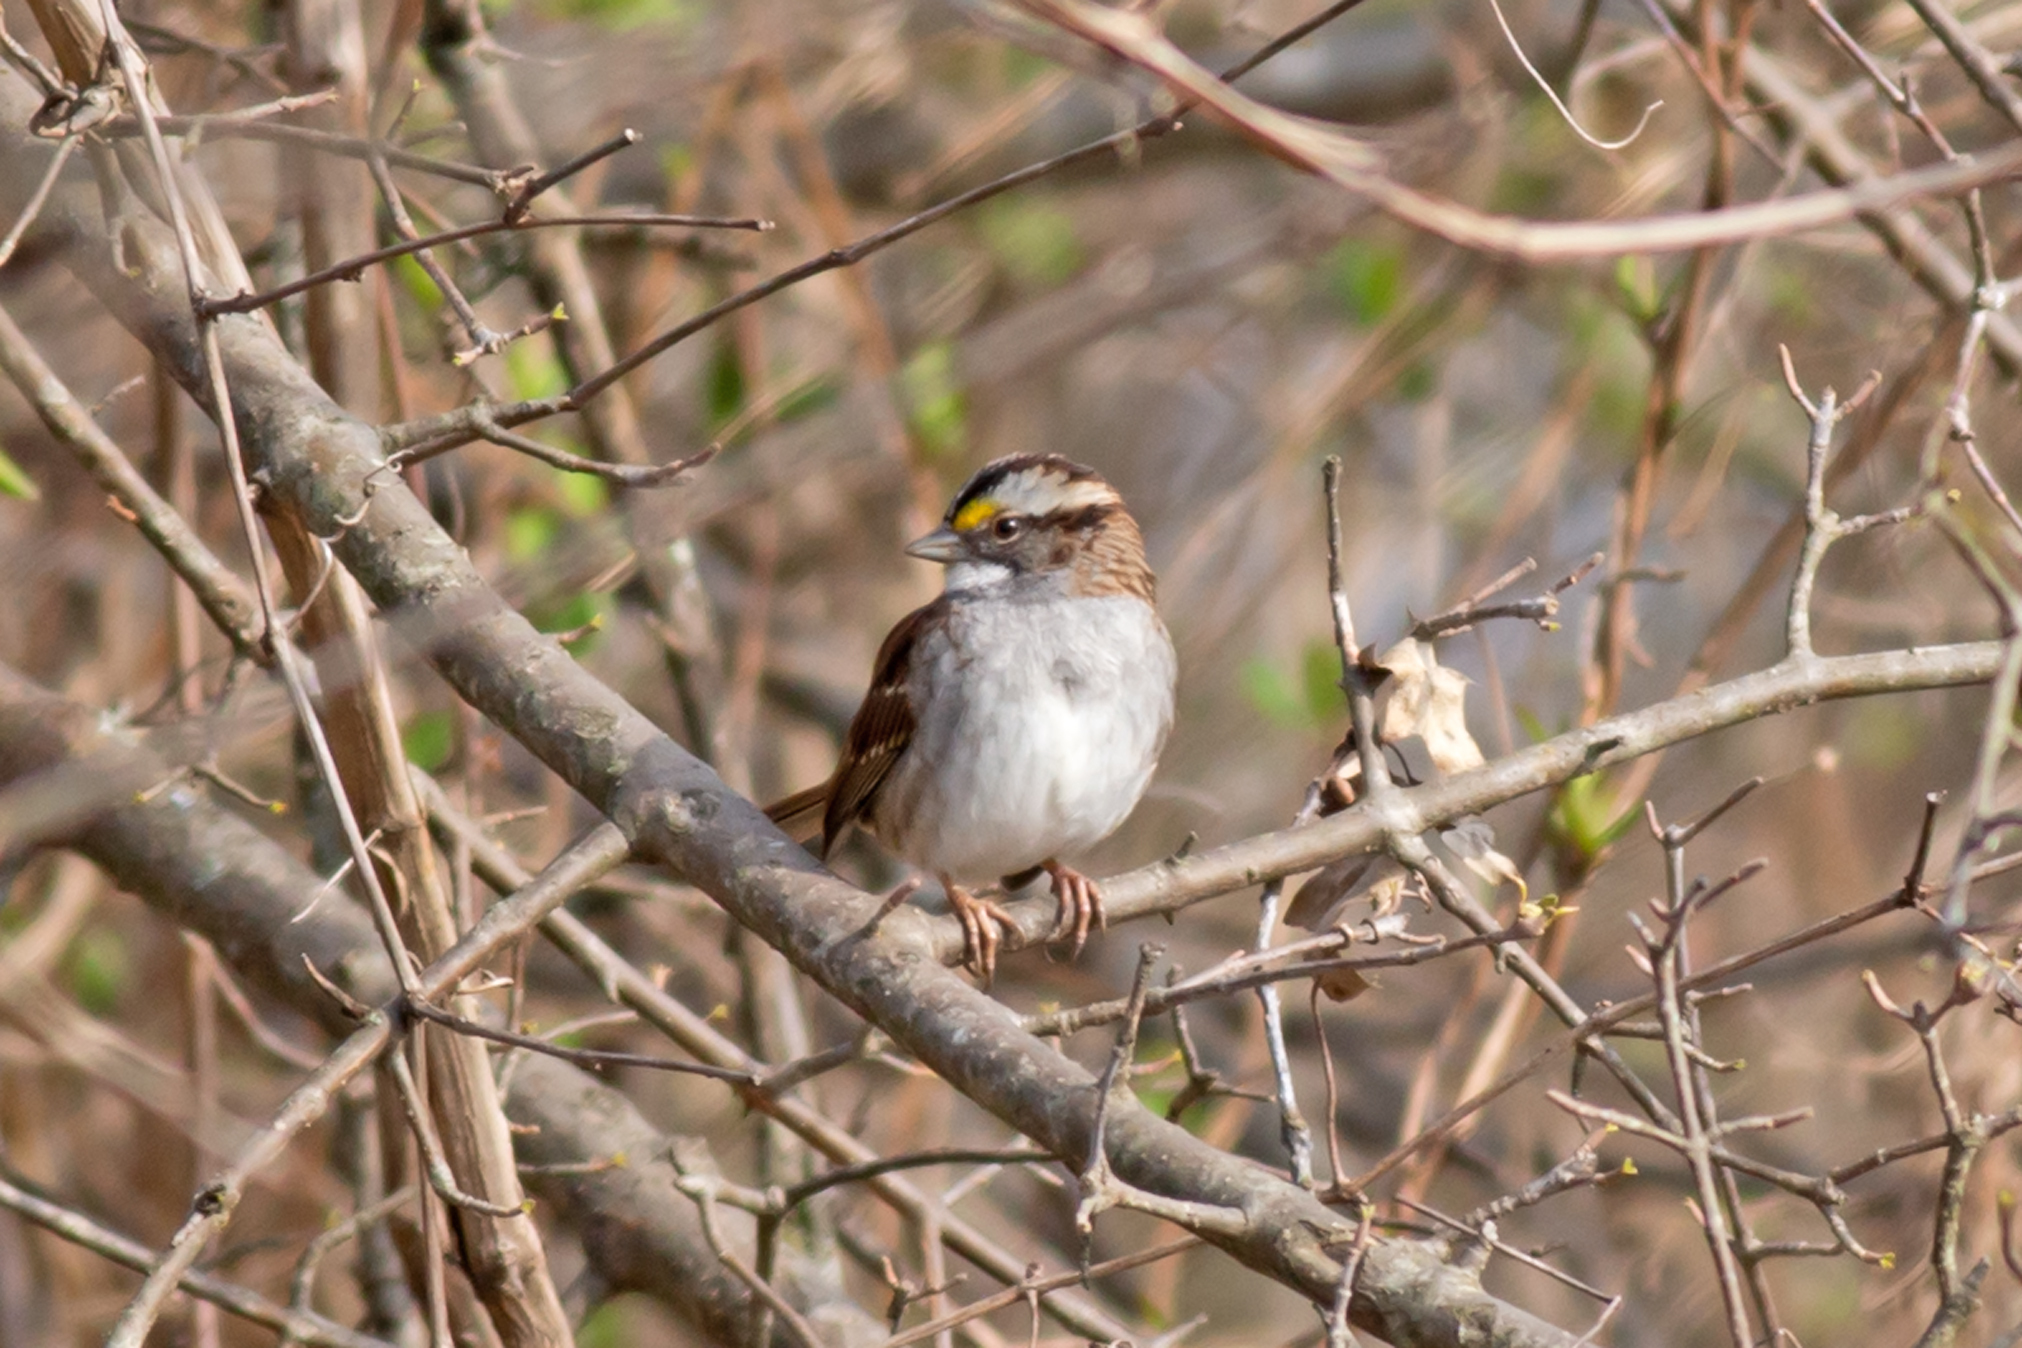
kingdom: Animalia
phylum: Chordata
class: Aves
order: Passeriformes
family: Passerellidae
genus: Zonotrichia
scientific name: Zonotrichia albicollis
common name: White-throated sparrow
